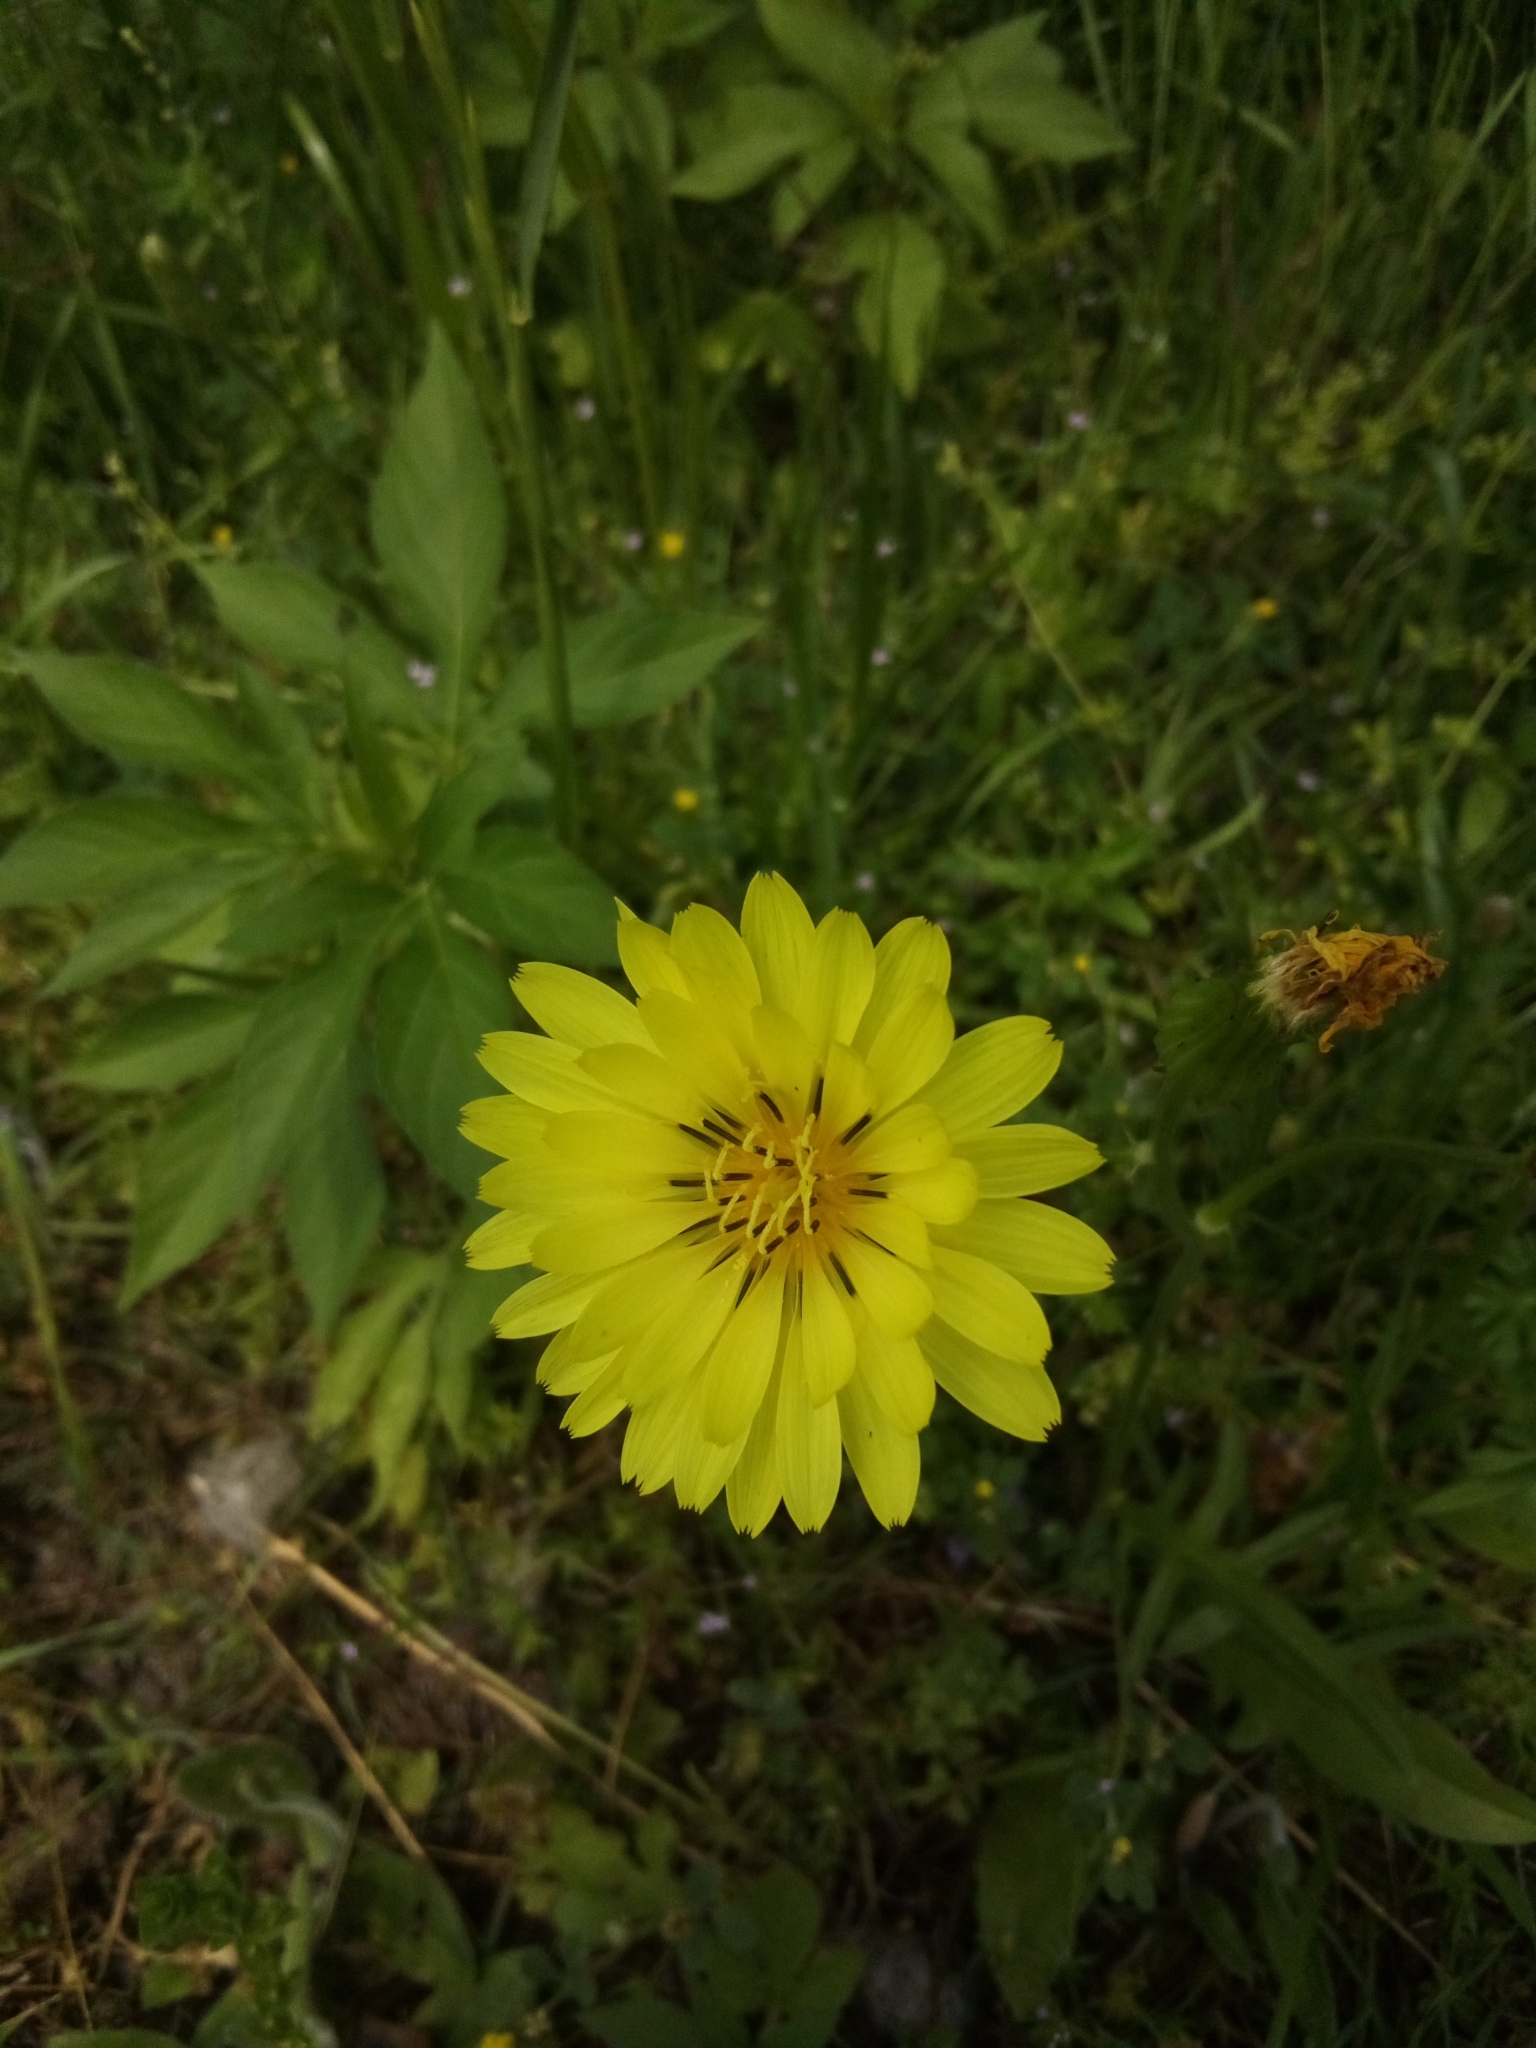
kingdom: Plantae
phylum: Tracheophyta
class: Magnoliopsida
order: Asterales
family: Asteraceae
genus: Pyrrhopappus
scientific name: Pyrrhopappus pauciflorus
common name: Texas false dandelion
